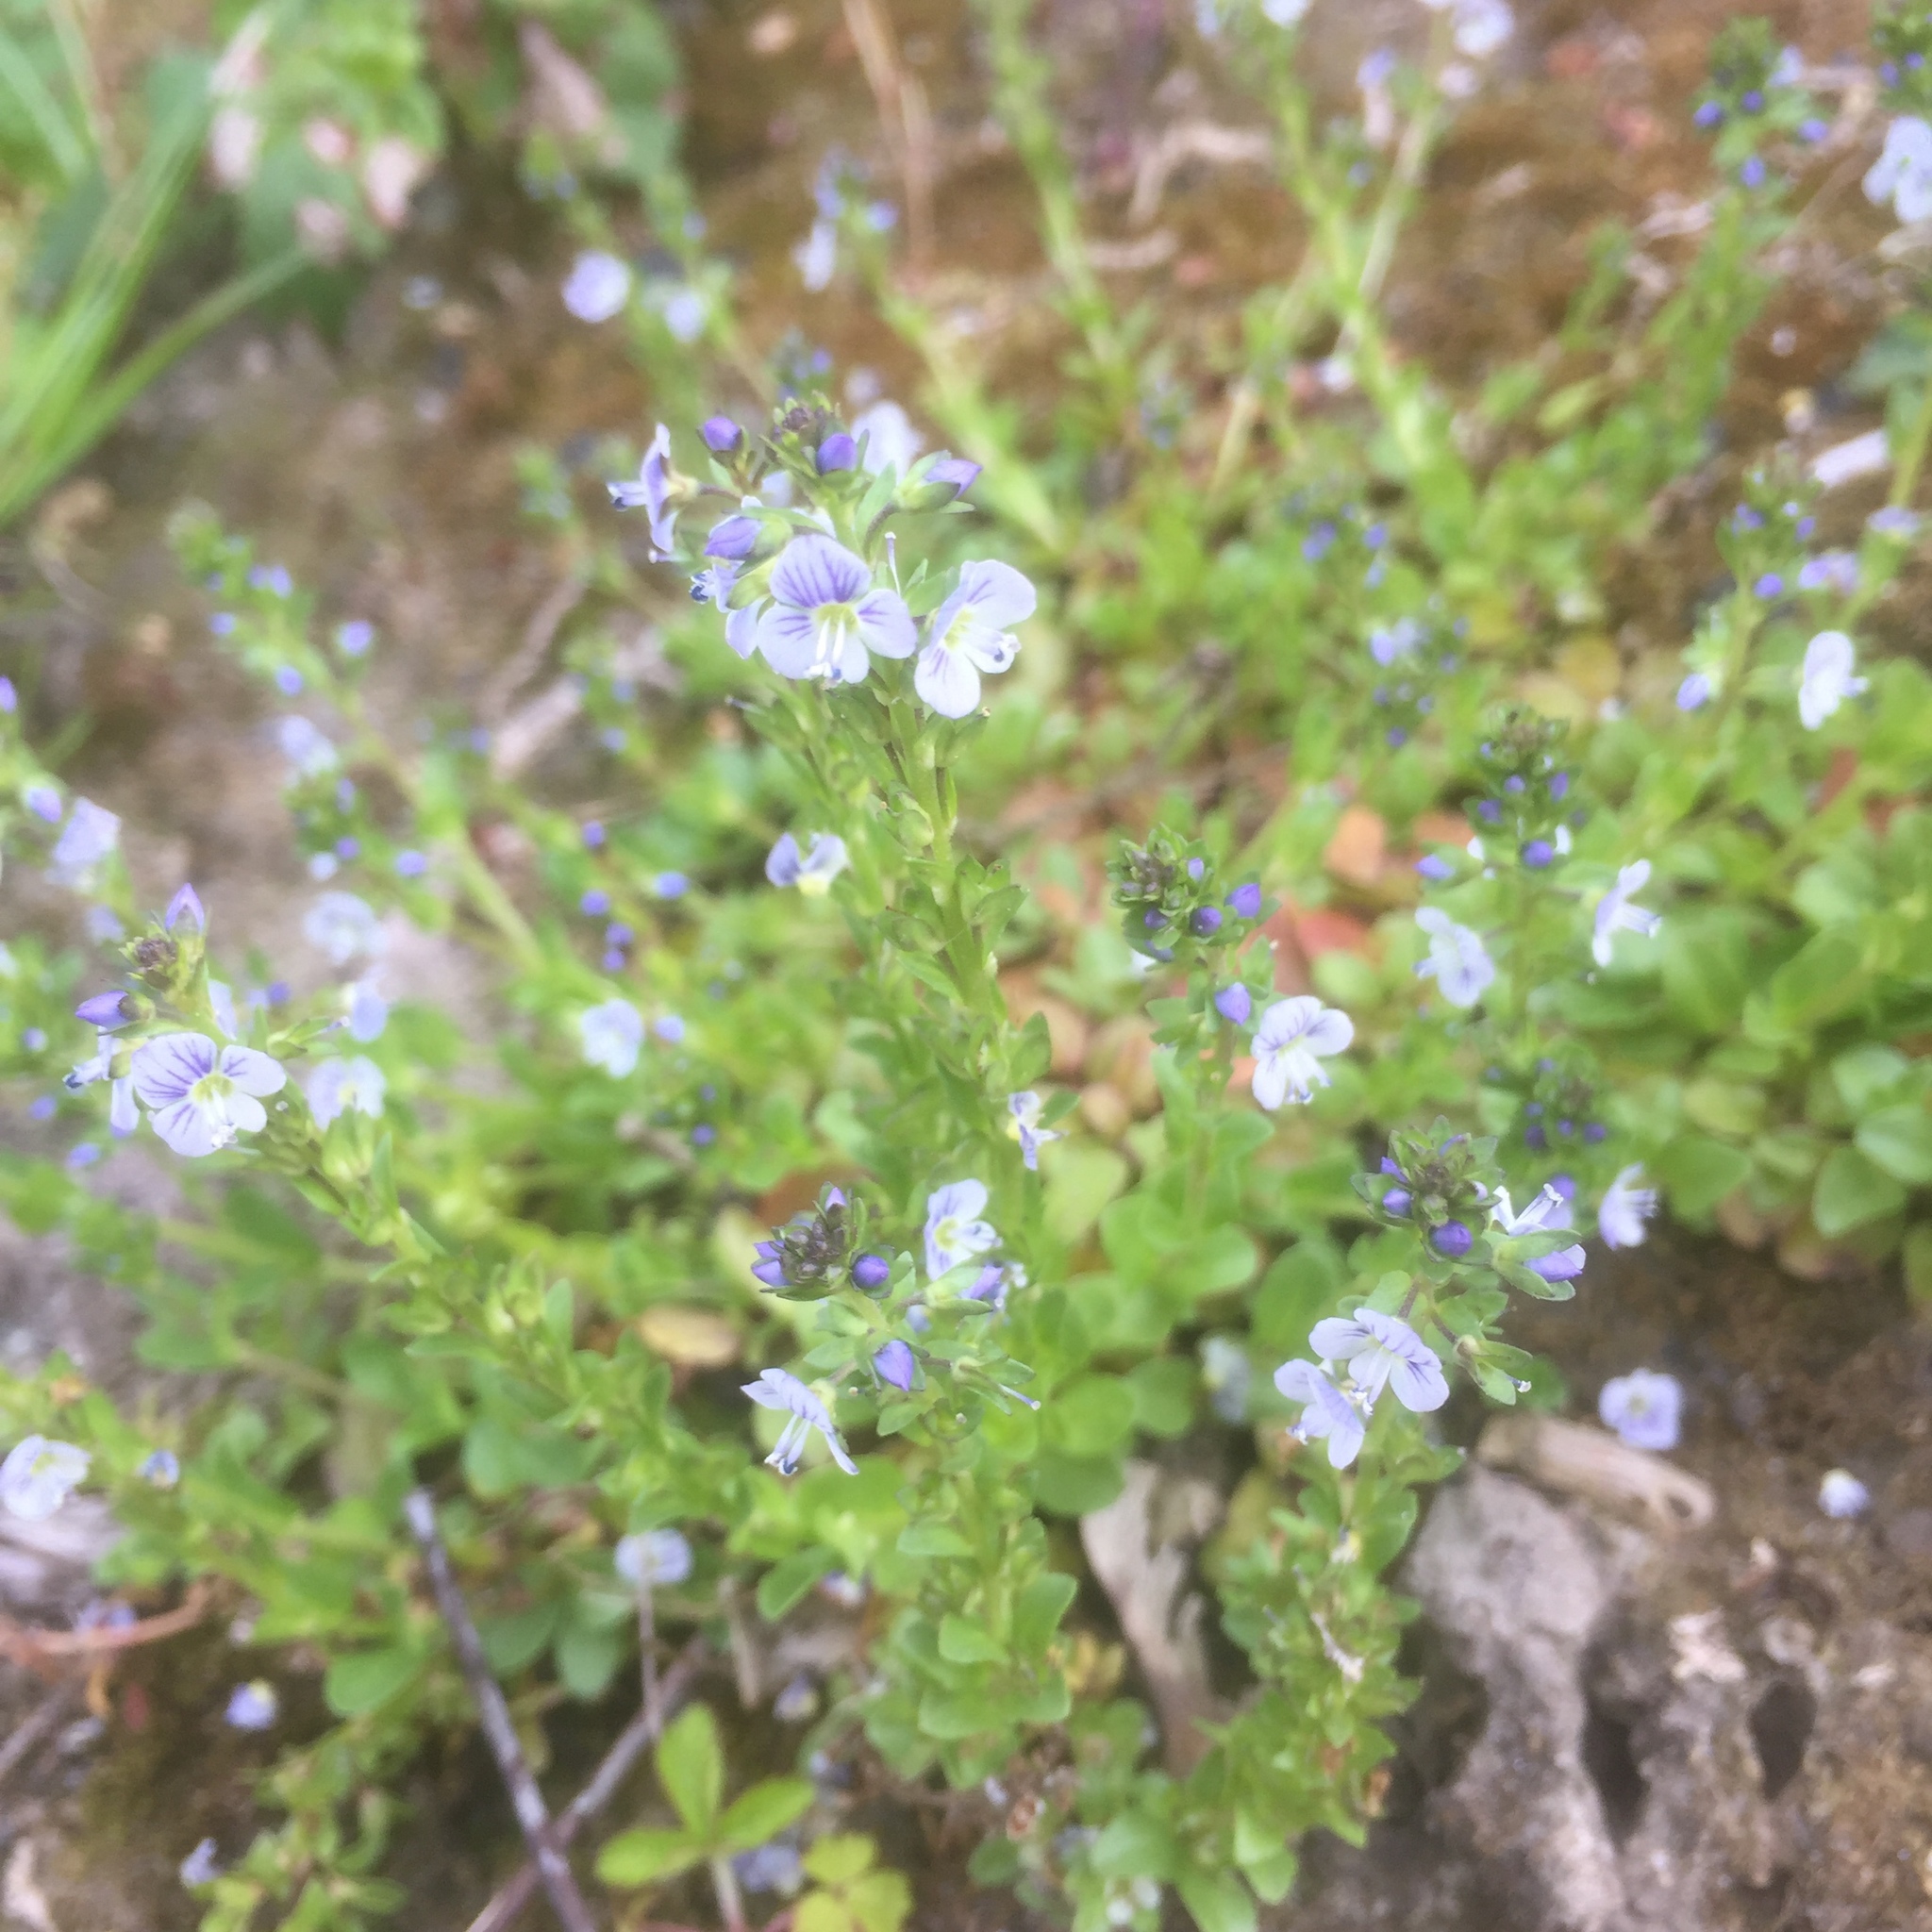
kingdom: Plantae
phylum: Tracheophyta
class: Magnoliopsida
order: Lamiales
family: Plantaginaceae
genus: Veronica
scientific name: Veronica serpyllifolia
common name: Thyme-leaved speedwell
